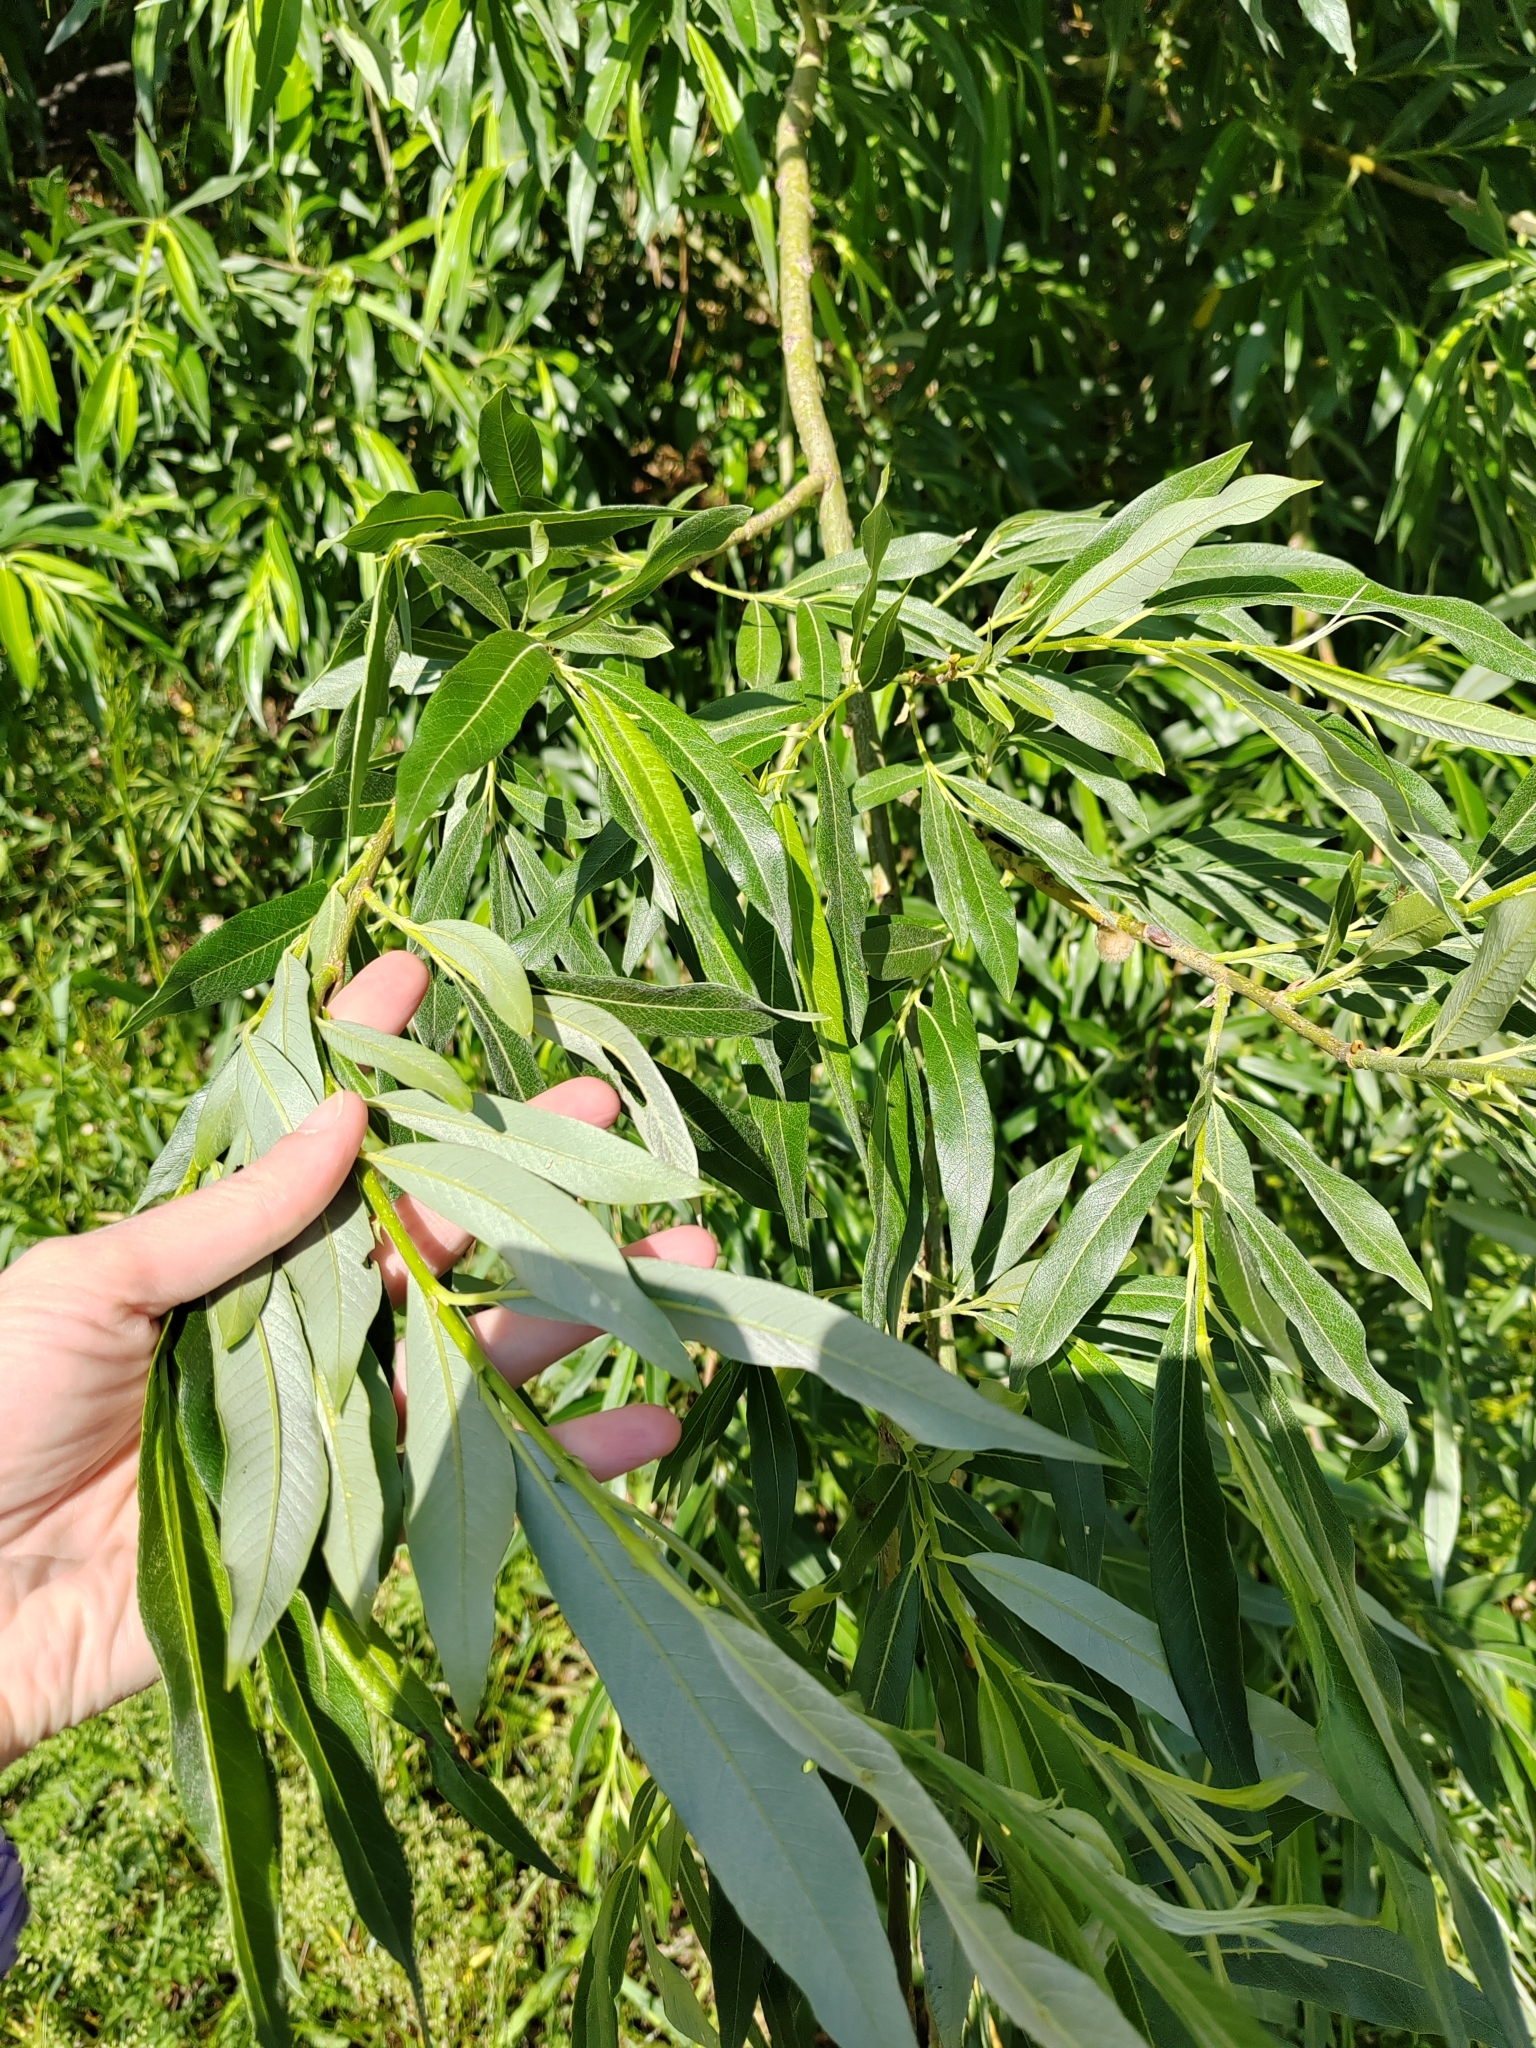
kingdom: Plantae
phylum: Tracheophyta
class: Magnoliopsida
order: Malpighiales
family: Salicaceae
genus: Salix
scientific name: Salix gmelinii
